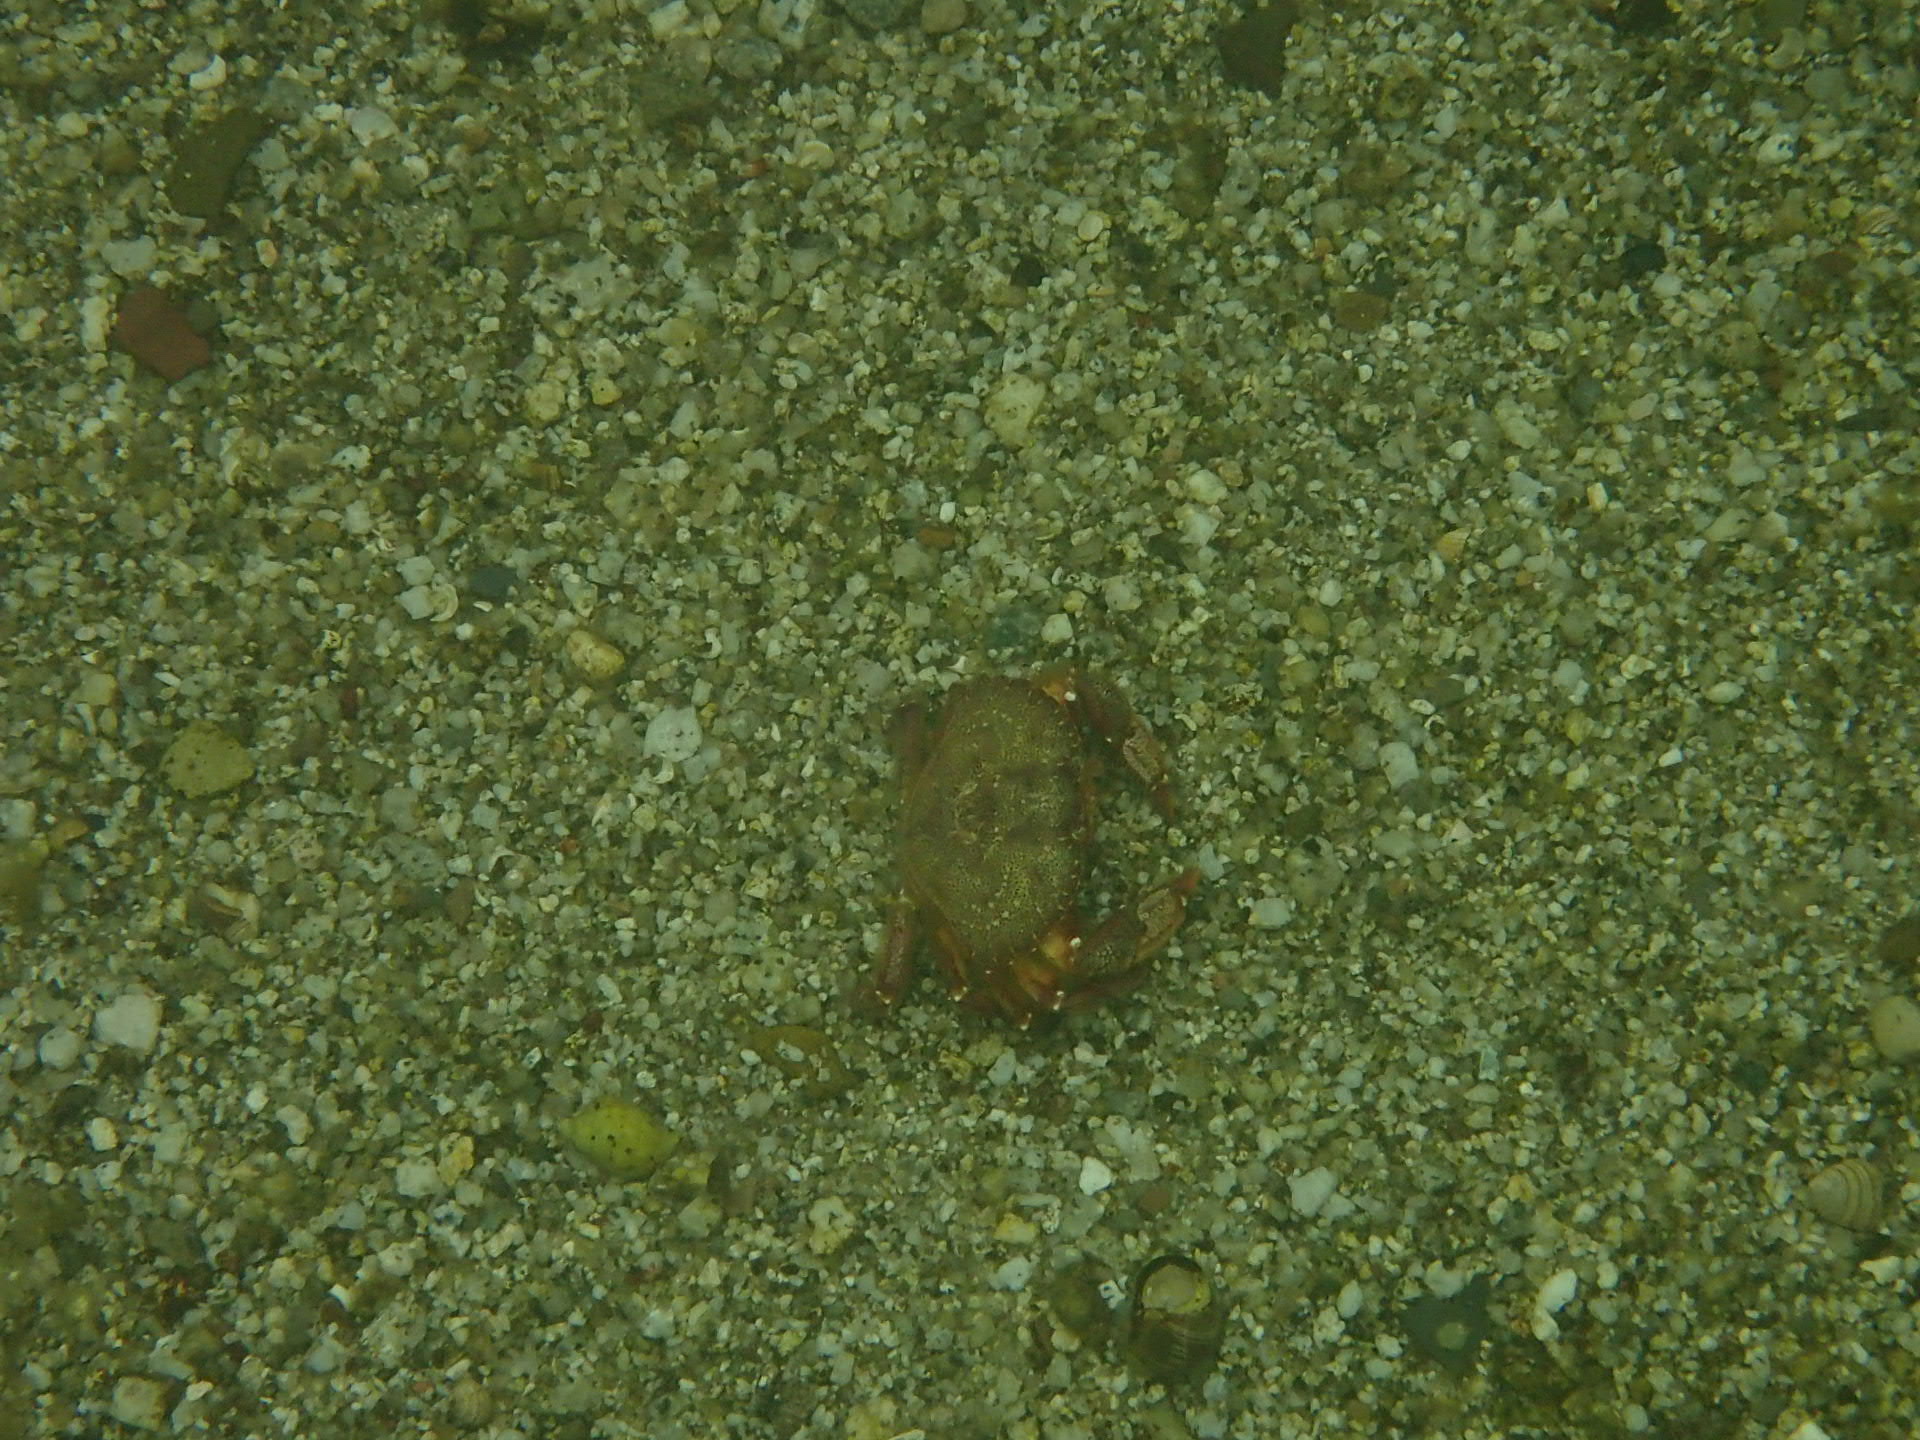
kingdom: Animalia
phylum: Arthropoda
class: Malacostraca
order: Decapoda
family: Cancridae
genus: Cancer
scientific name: Cancer irroratus
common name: Atlantic rock crab
